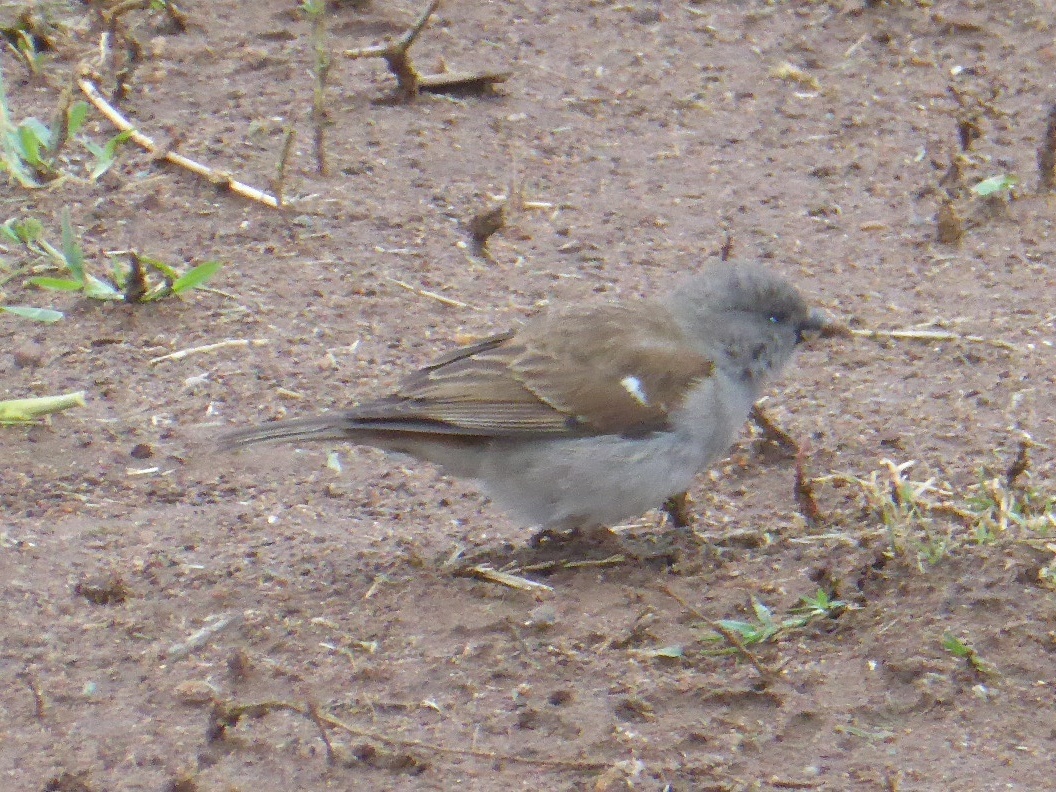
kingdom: Animalia
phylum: Chordata
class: Aves
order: Passeriformes
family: Passeridae
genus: Passer
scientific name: Passer diffusus
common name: Southern grey-headed sparrow
